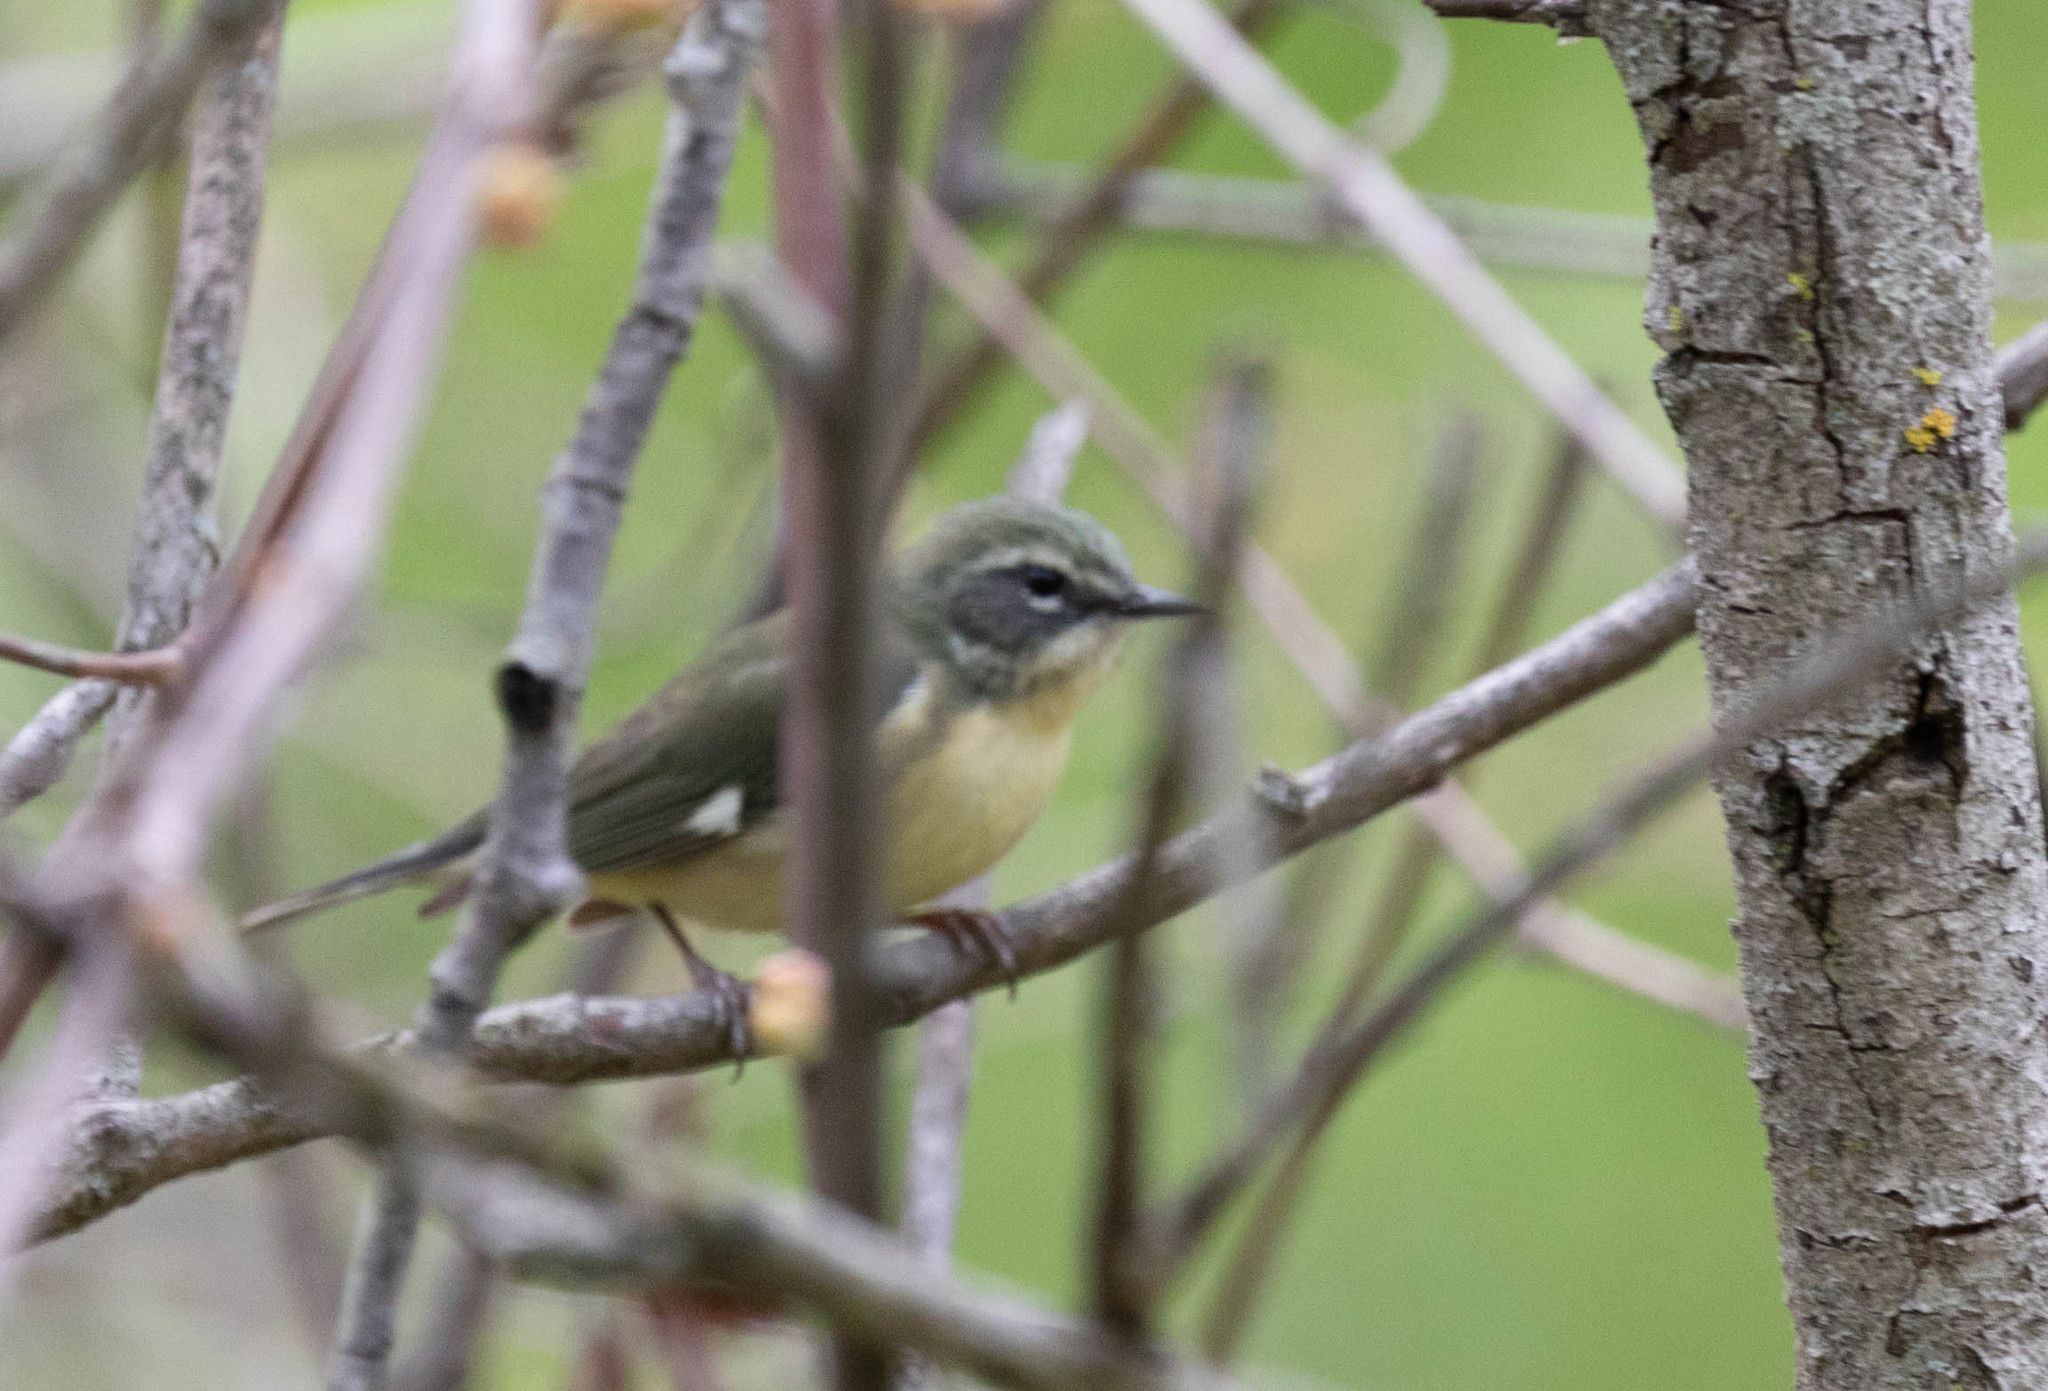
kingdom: Animalia
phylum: Chordata
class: Aves
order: Passeriformes
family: Parulidae
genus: Setophaga
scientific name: Setophaga caerulescens
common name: Black-throated blue warbler
